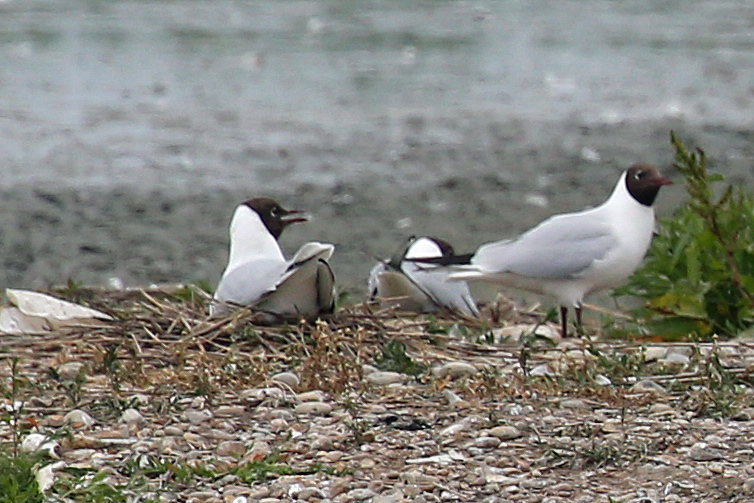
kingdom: Animalia
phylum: Chordata
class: Aves
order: Charadriiformes
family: Laridae
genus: Chroicocephalus
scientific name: Chroicocephalus ridibundus
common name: Black-headed gull
